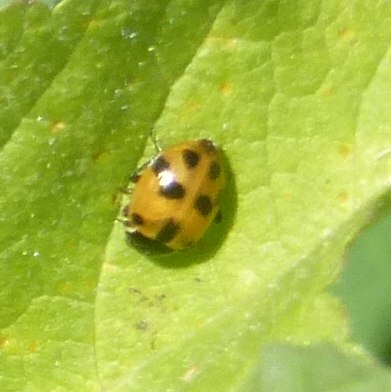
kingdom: Animalia
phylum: Arthropoda
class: Insecta
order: Coleoptera
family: Coccinellidae
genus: Hippodamia
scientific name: Hippodamia variegata
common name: Ladybird beetle
